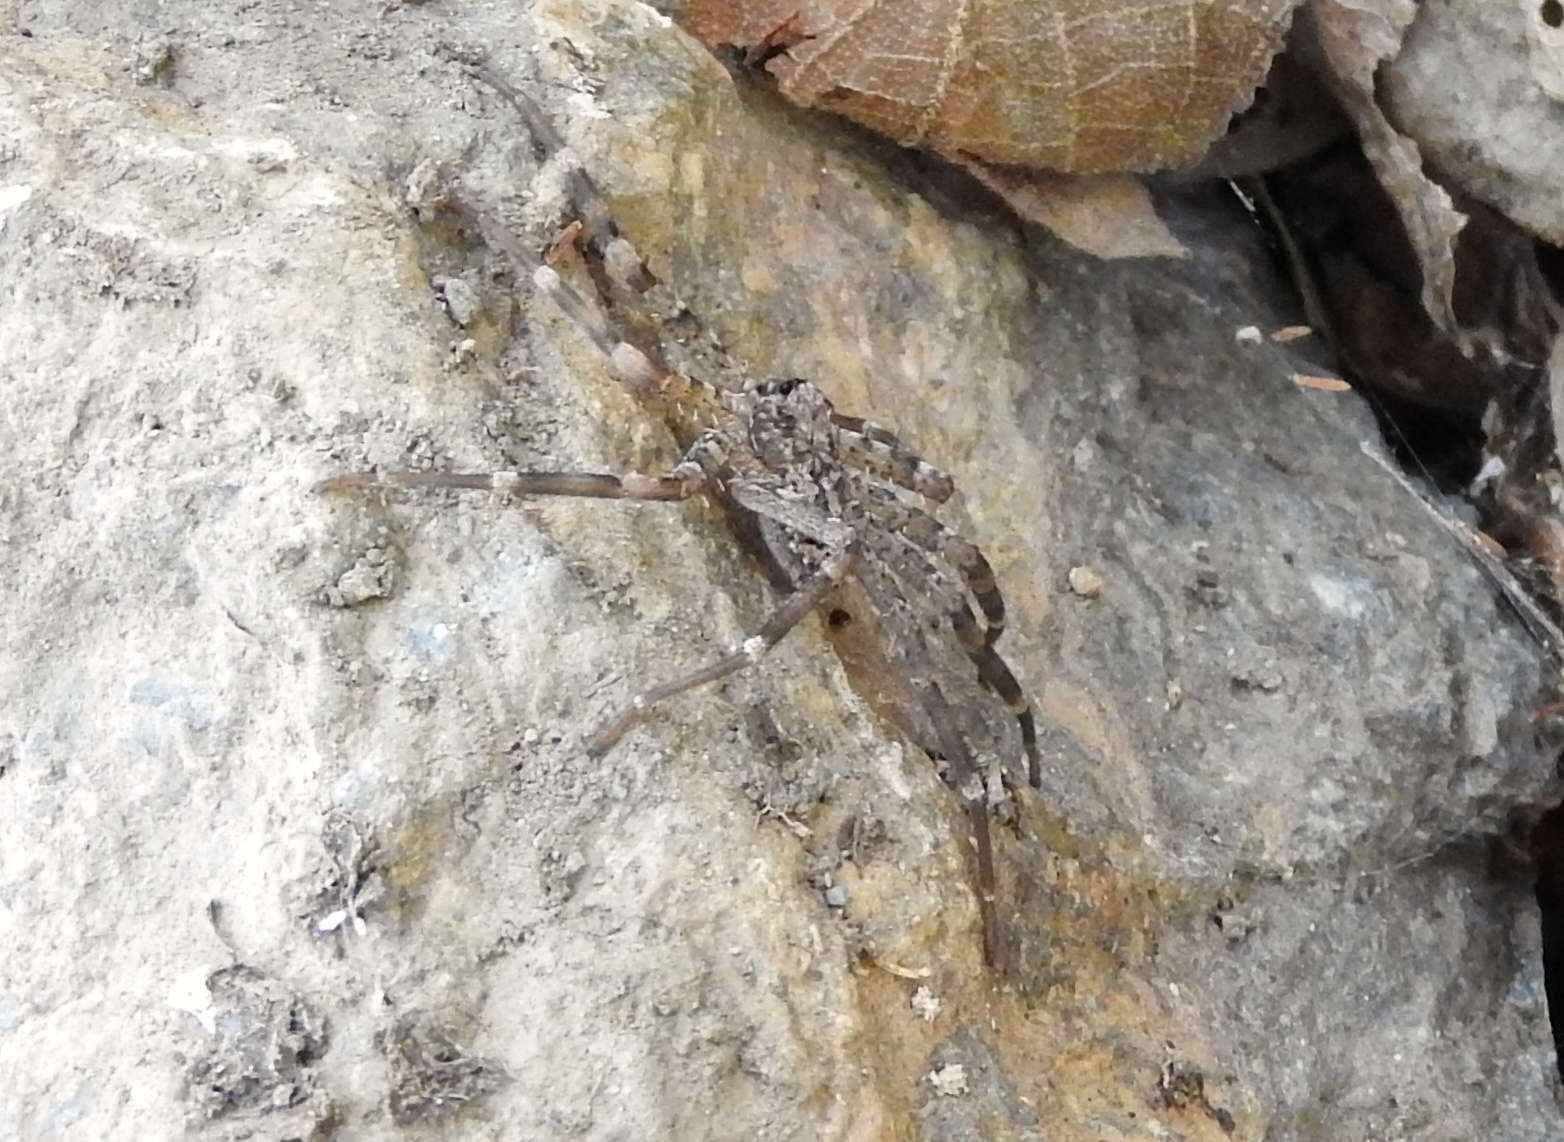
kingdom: Animalia
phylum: Arthropoda
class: Arachnida
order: Araneae
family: Selenopidae
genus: Selenops
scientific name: Selenops
